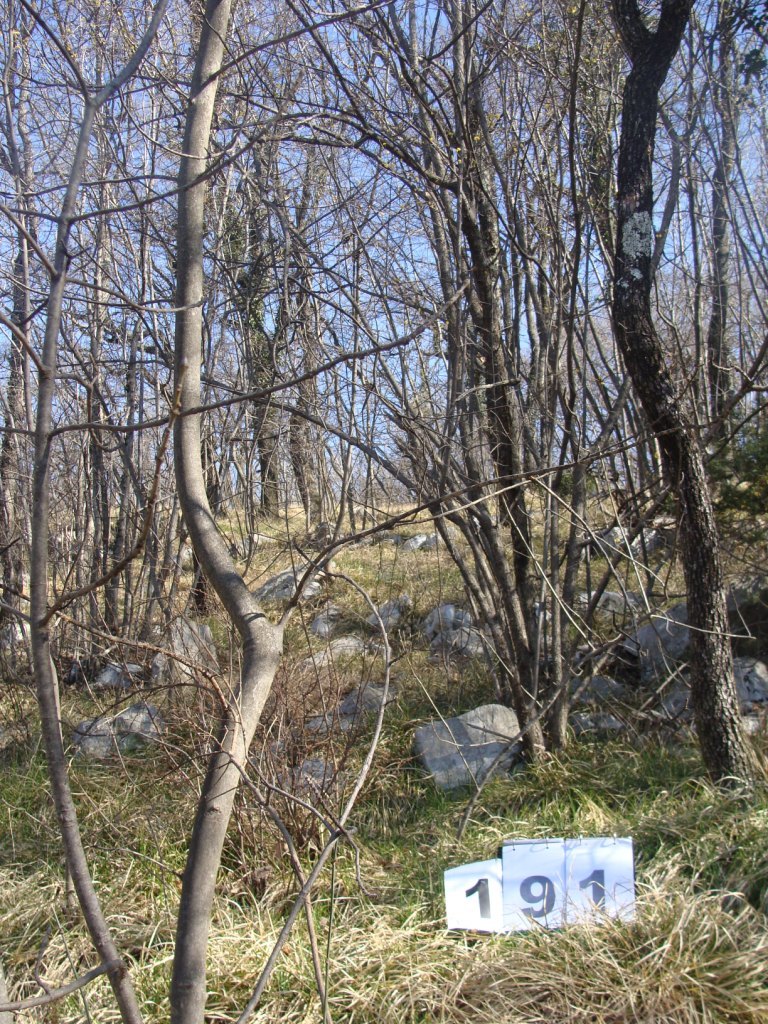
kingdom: Plantae
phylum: Tracheophyta
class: Magnoliopsida
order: Cornales
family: Cornaceae
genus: Cornus
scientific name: Cornus mas
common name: Cornelian-cherry
